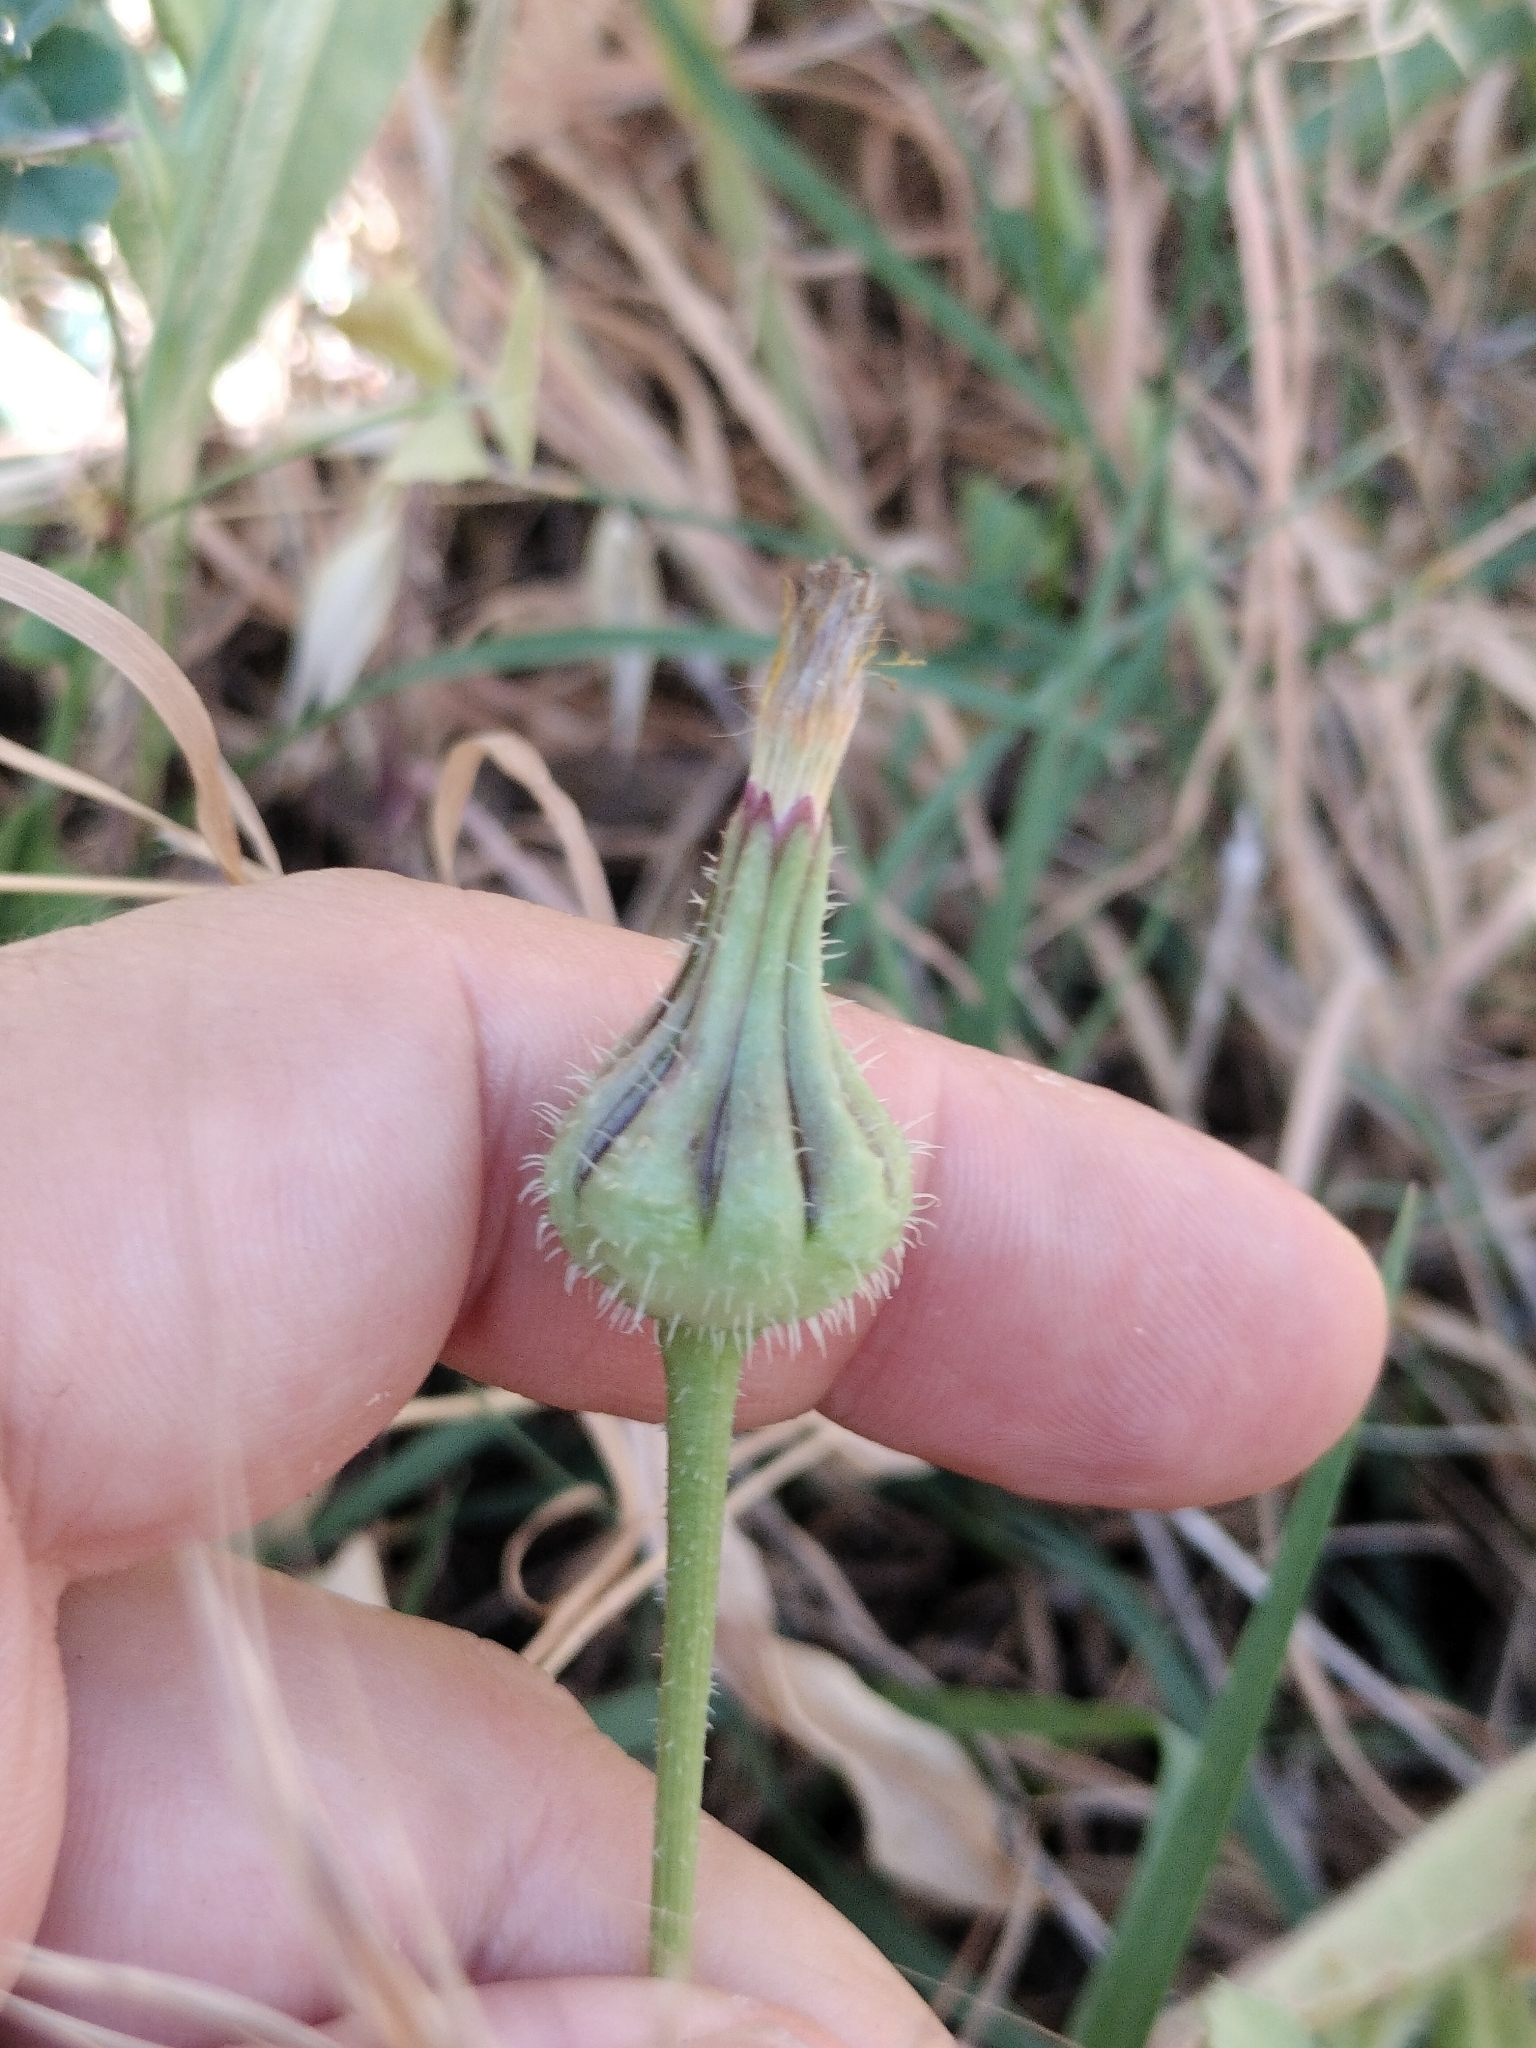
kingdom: Plantae
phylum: Tracheophyta
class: Magnoliopsida
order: Asterales
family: Asteraceae
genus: Urospermum
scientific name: Urospermum picroides
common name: False hawkbit
